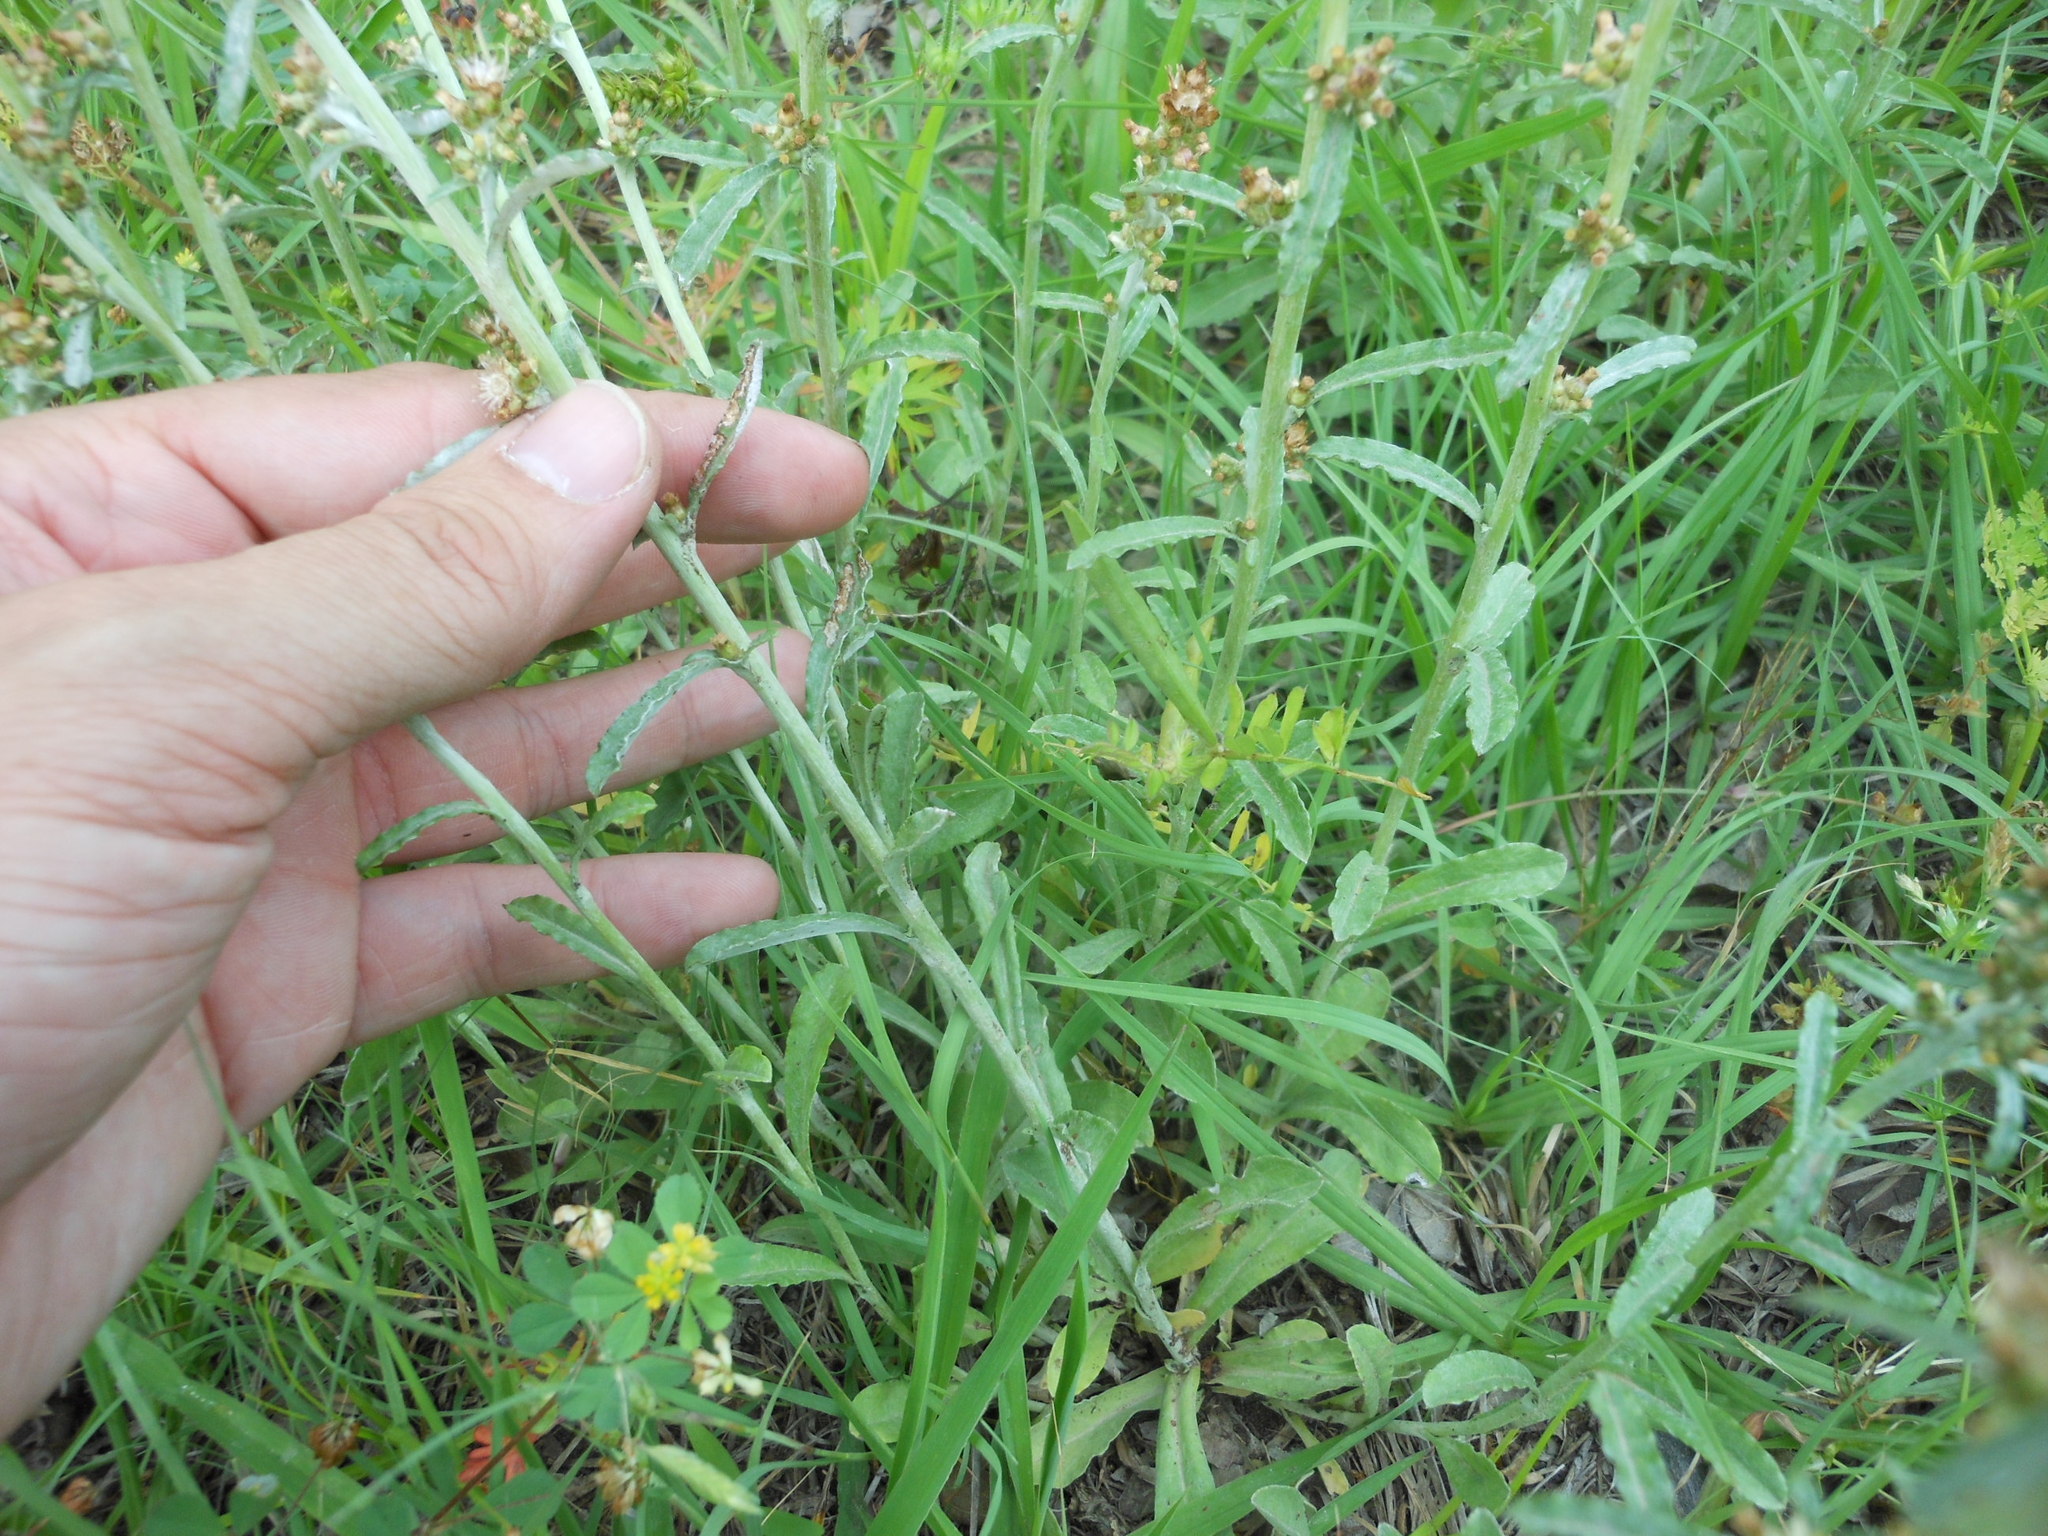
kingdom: Plantae
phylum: Tracheophyta
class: Magnoliopsida
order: Asterales
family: Asteraceae
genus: Gamochaeta
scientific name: Gamochaeta pensylvanica
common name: Pennsylvania everlasting
